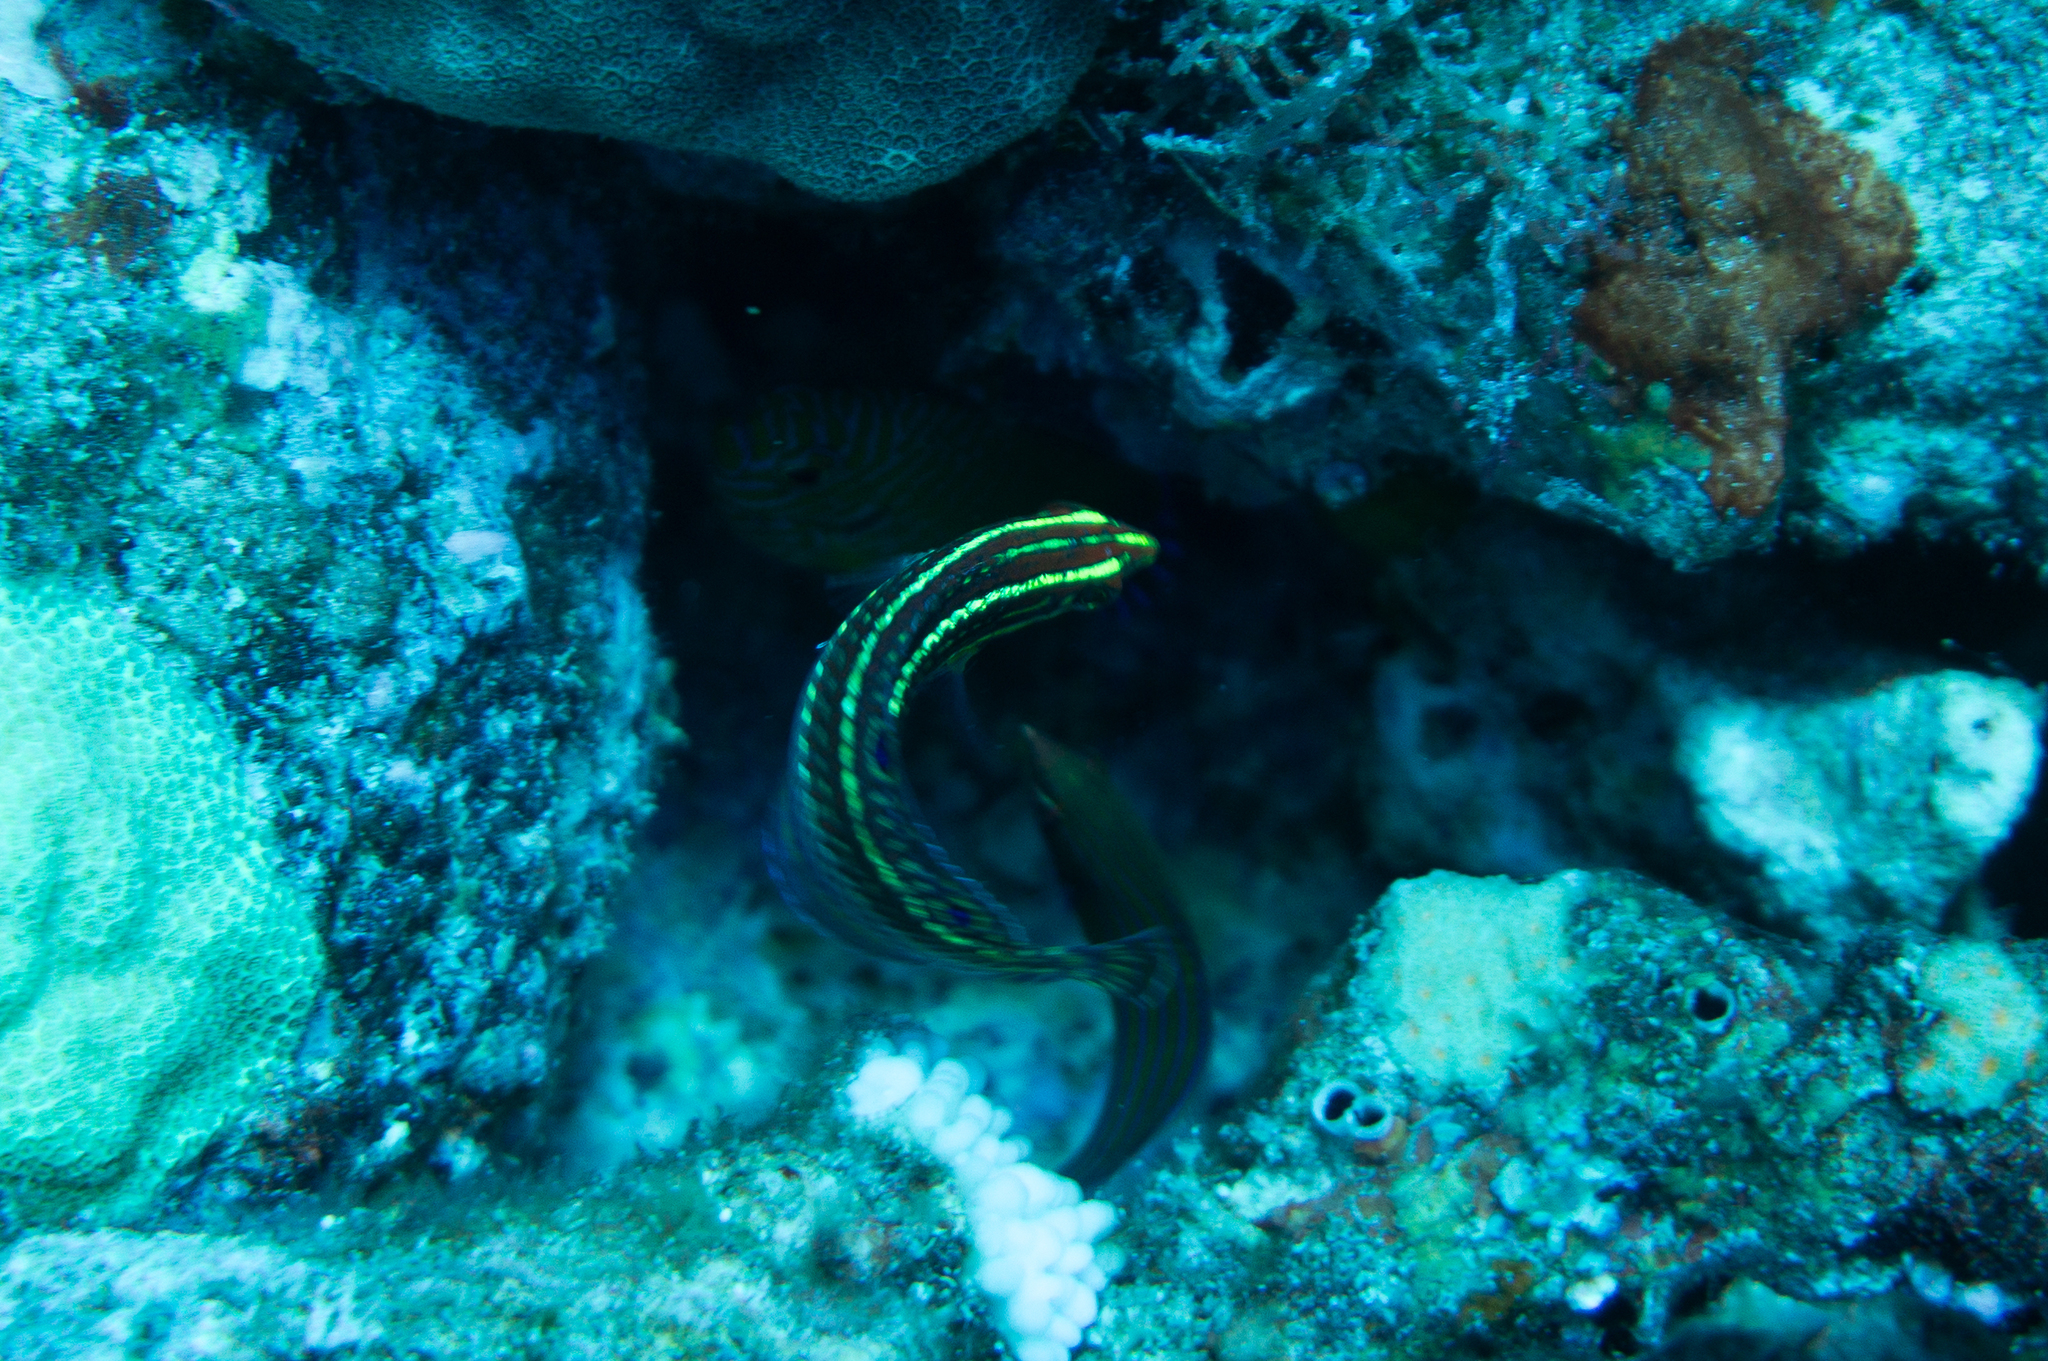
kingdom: Animalia
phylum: Chordata
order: Perciformes
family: Labridae
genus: Halichoeres
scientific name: Halichoeres ornatissimus
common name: Ornamented wrasse
